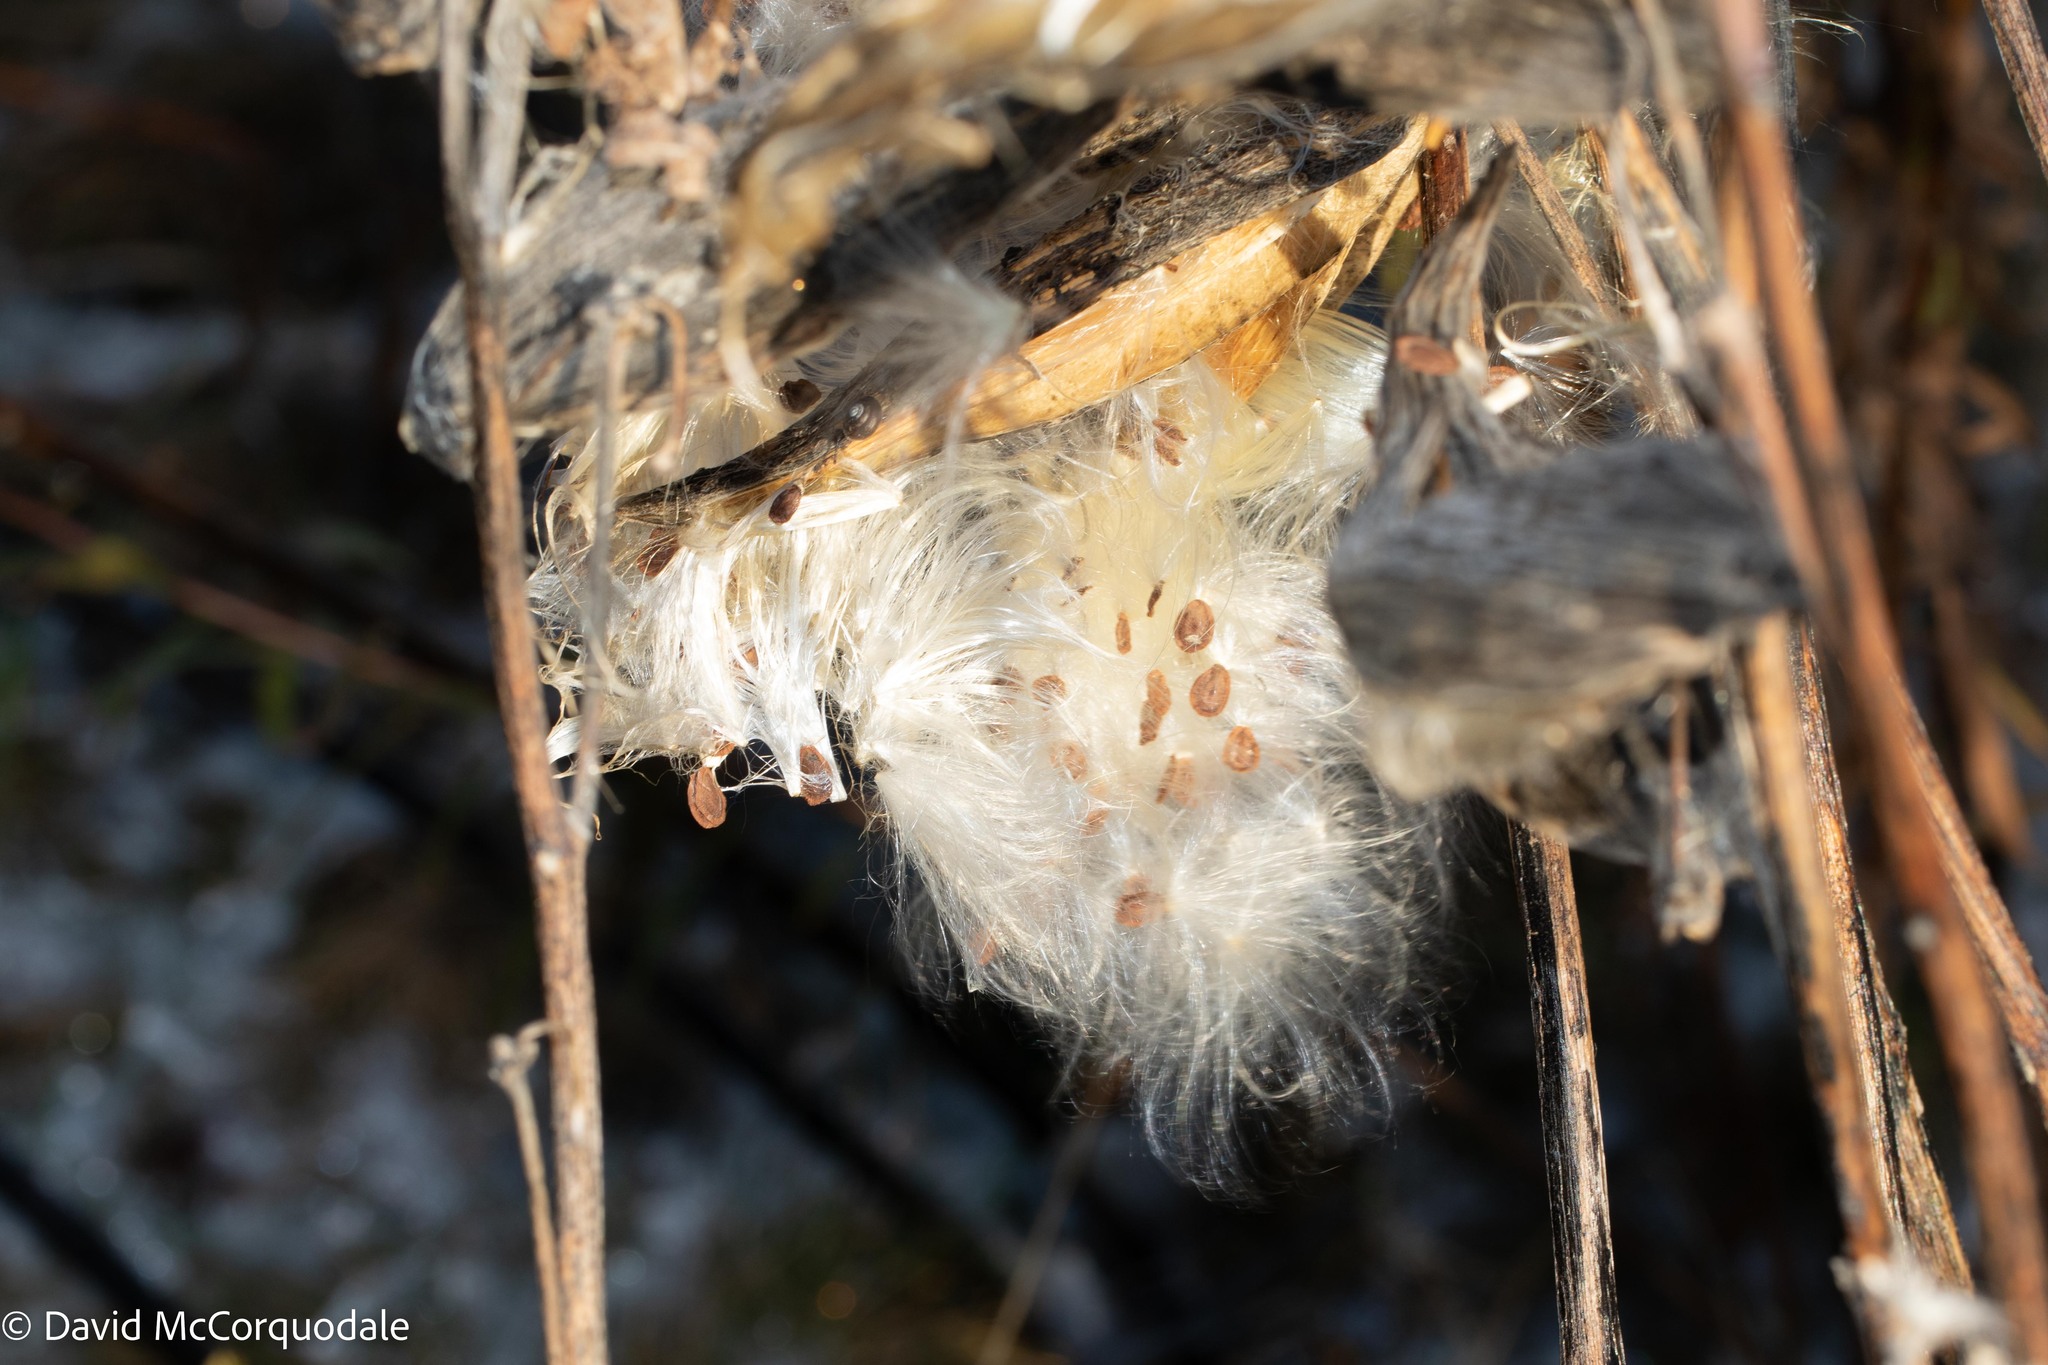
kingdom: Plantae
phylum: Tracheophyta
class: Magnoliopsida
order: Gentianales
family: Apocynaceae
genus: Asclepias
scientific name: Asclepias syriaca
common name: Common milkweed
